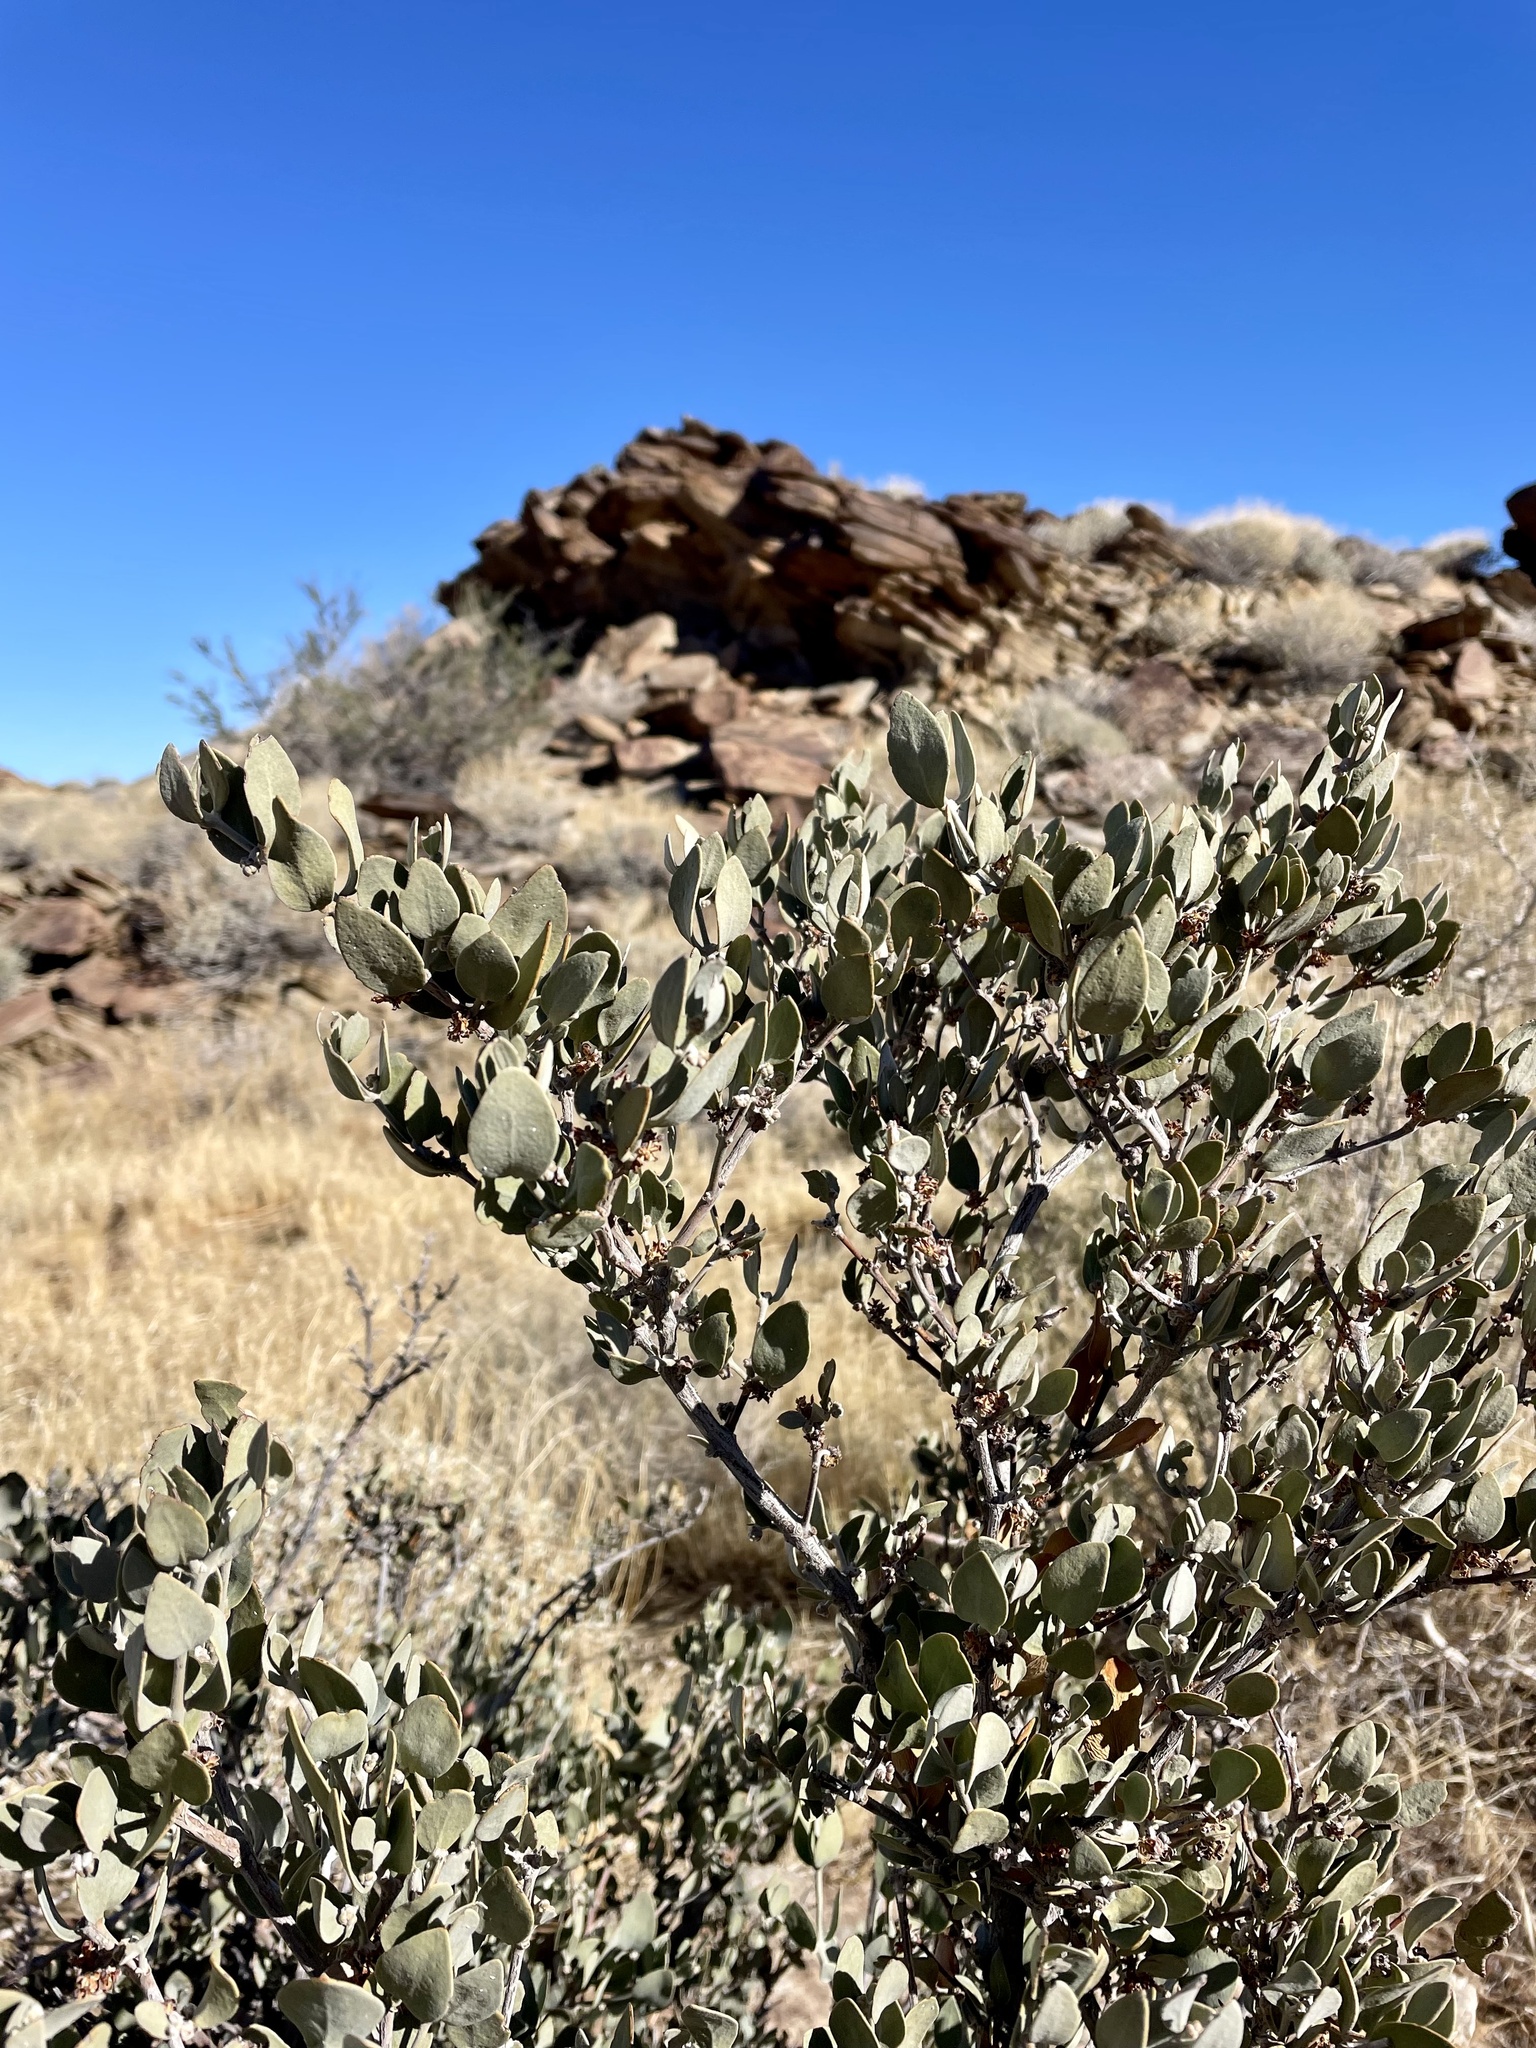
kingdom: Plantae
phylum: Tracheophyta
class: Magnoliopsida
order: Caryophyllales
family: Simmondsiaceae
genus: Simmondsia
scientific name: Simmondsia chinensis
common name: Jojoba
